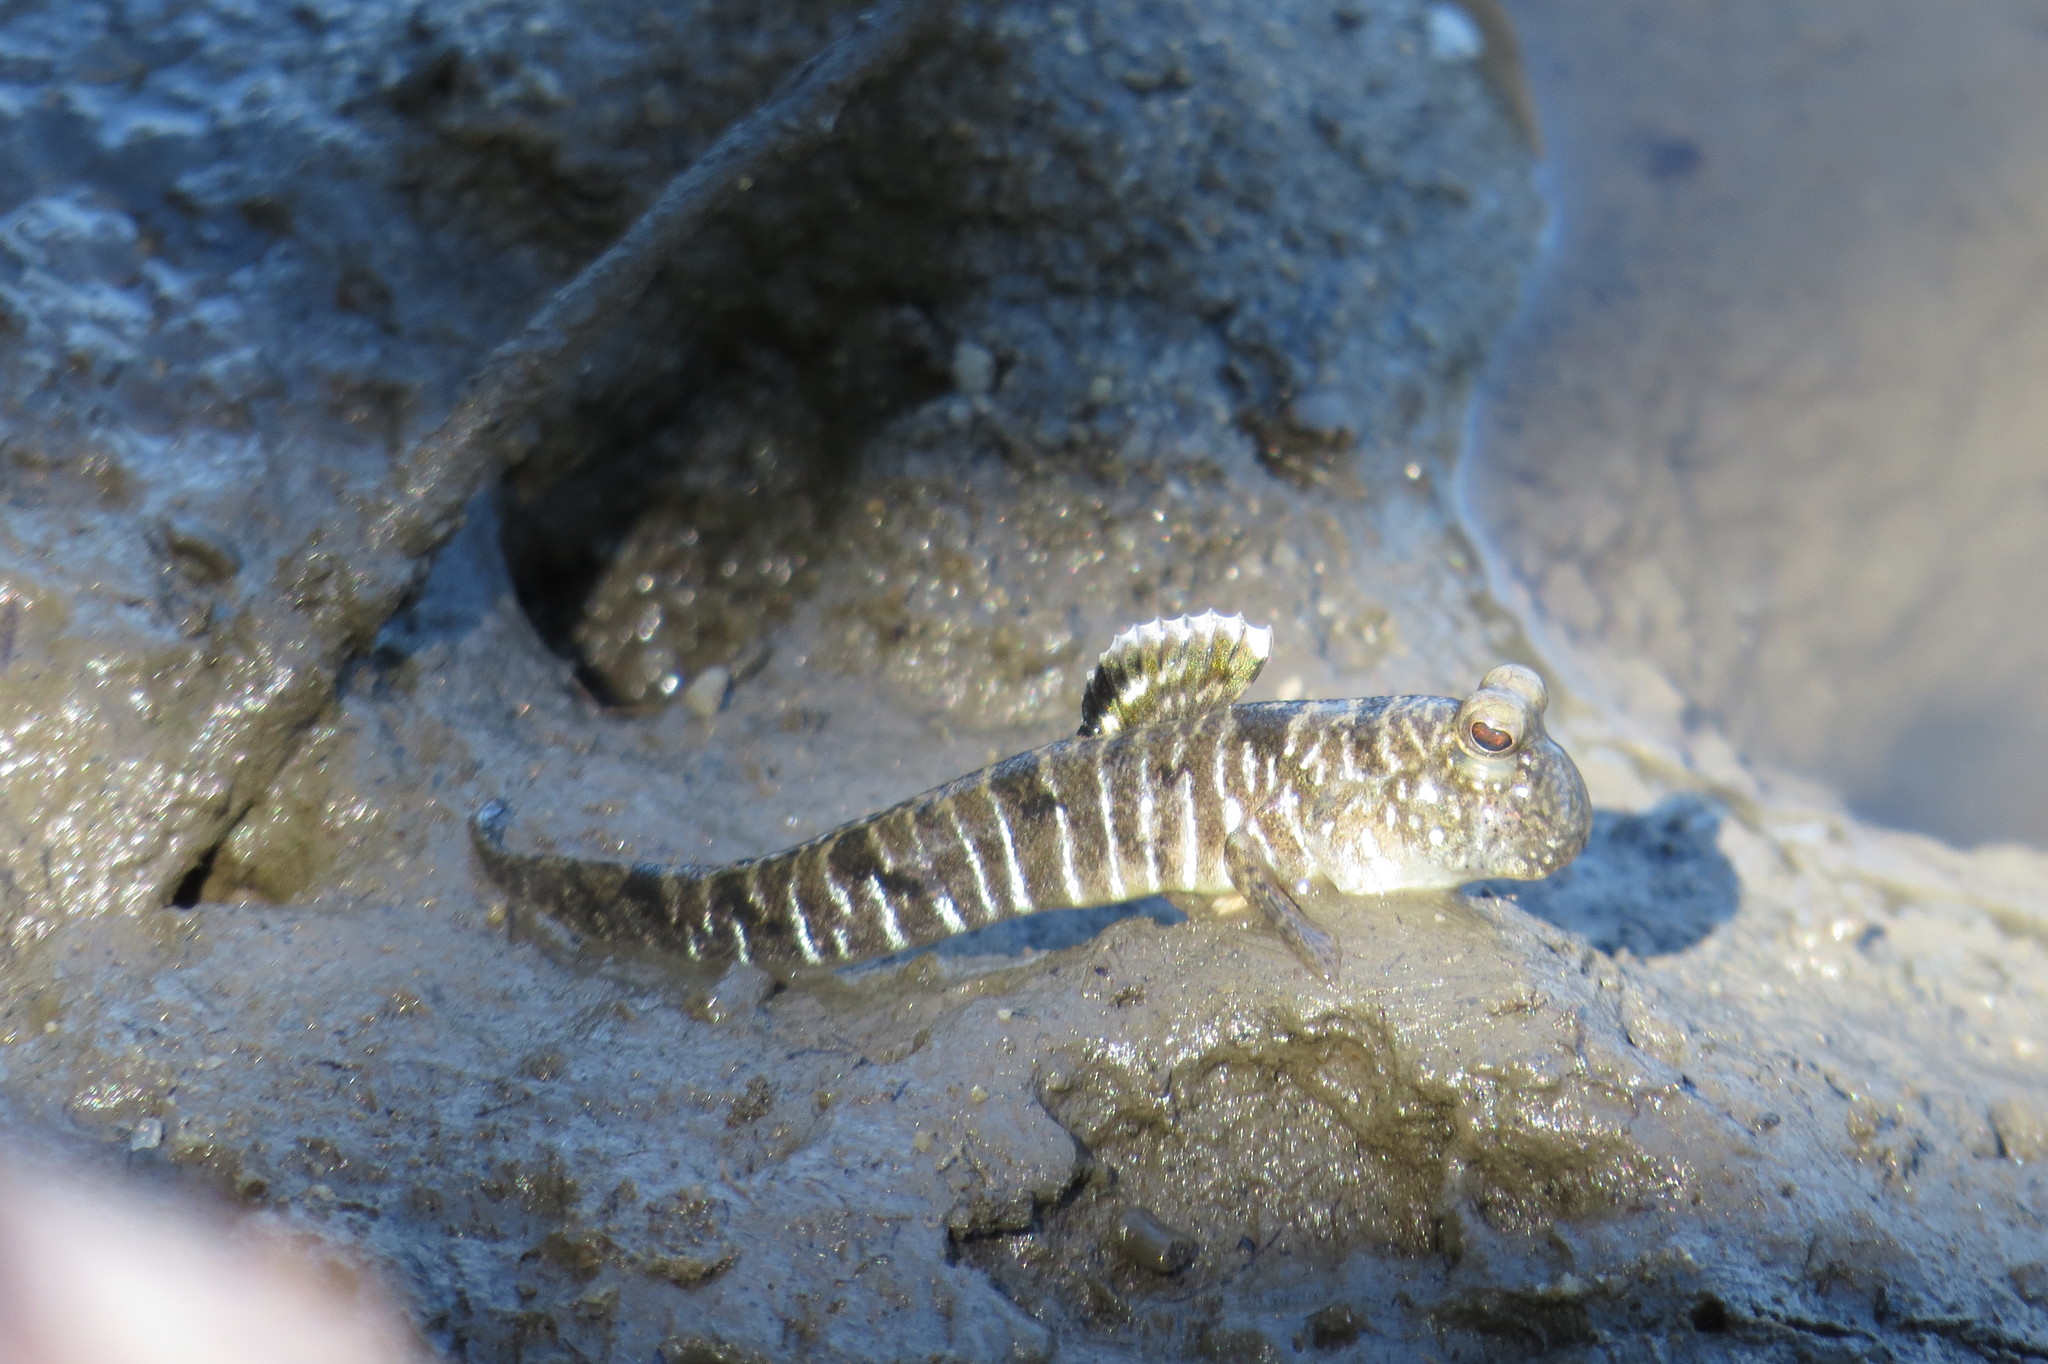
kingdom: Animalia
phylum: Chordata
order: Perciformes
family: Gobiidae
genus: Periophthalmus
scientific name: Periophthalmus gracilis
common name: Graceful mudskipper
